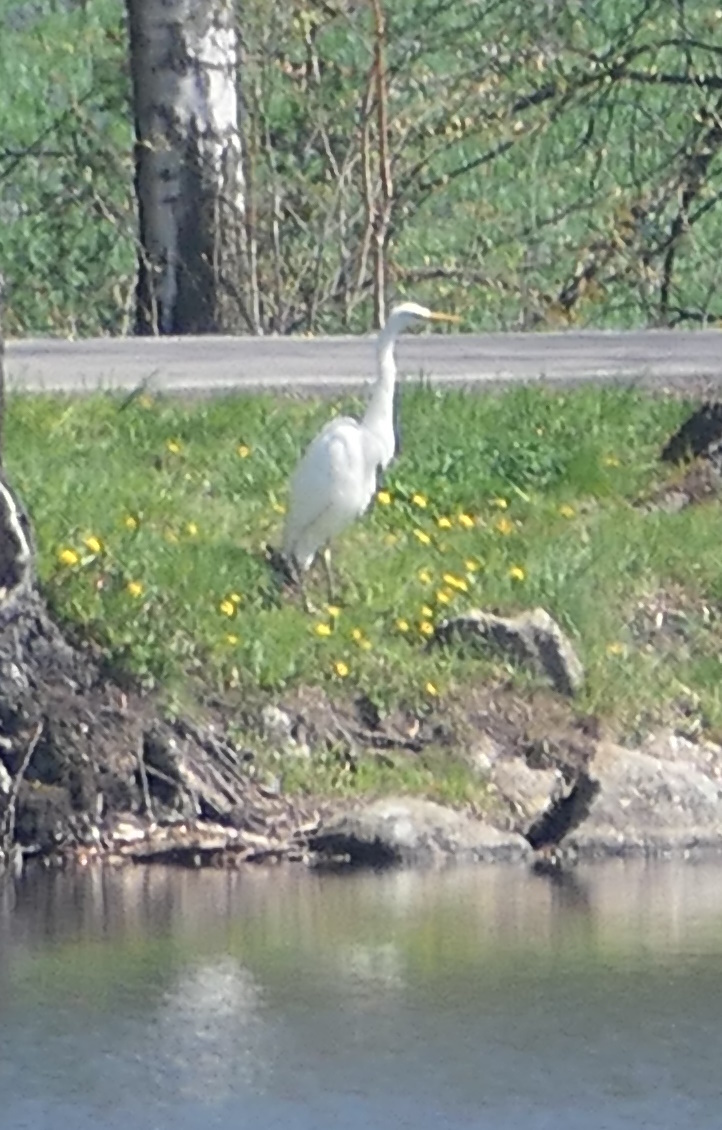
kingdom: Animalia
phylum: Chordata
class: Aves
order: Pelecaniformes
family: Ardeidae
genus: Ardea
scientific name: Ardea alba
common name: Great egret
